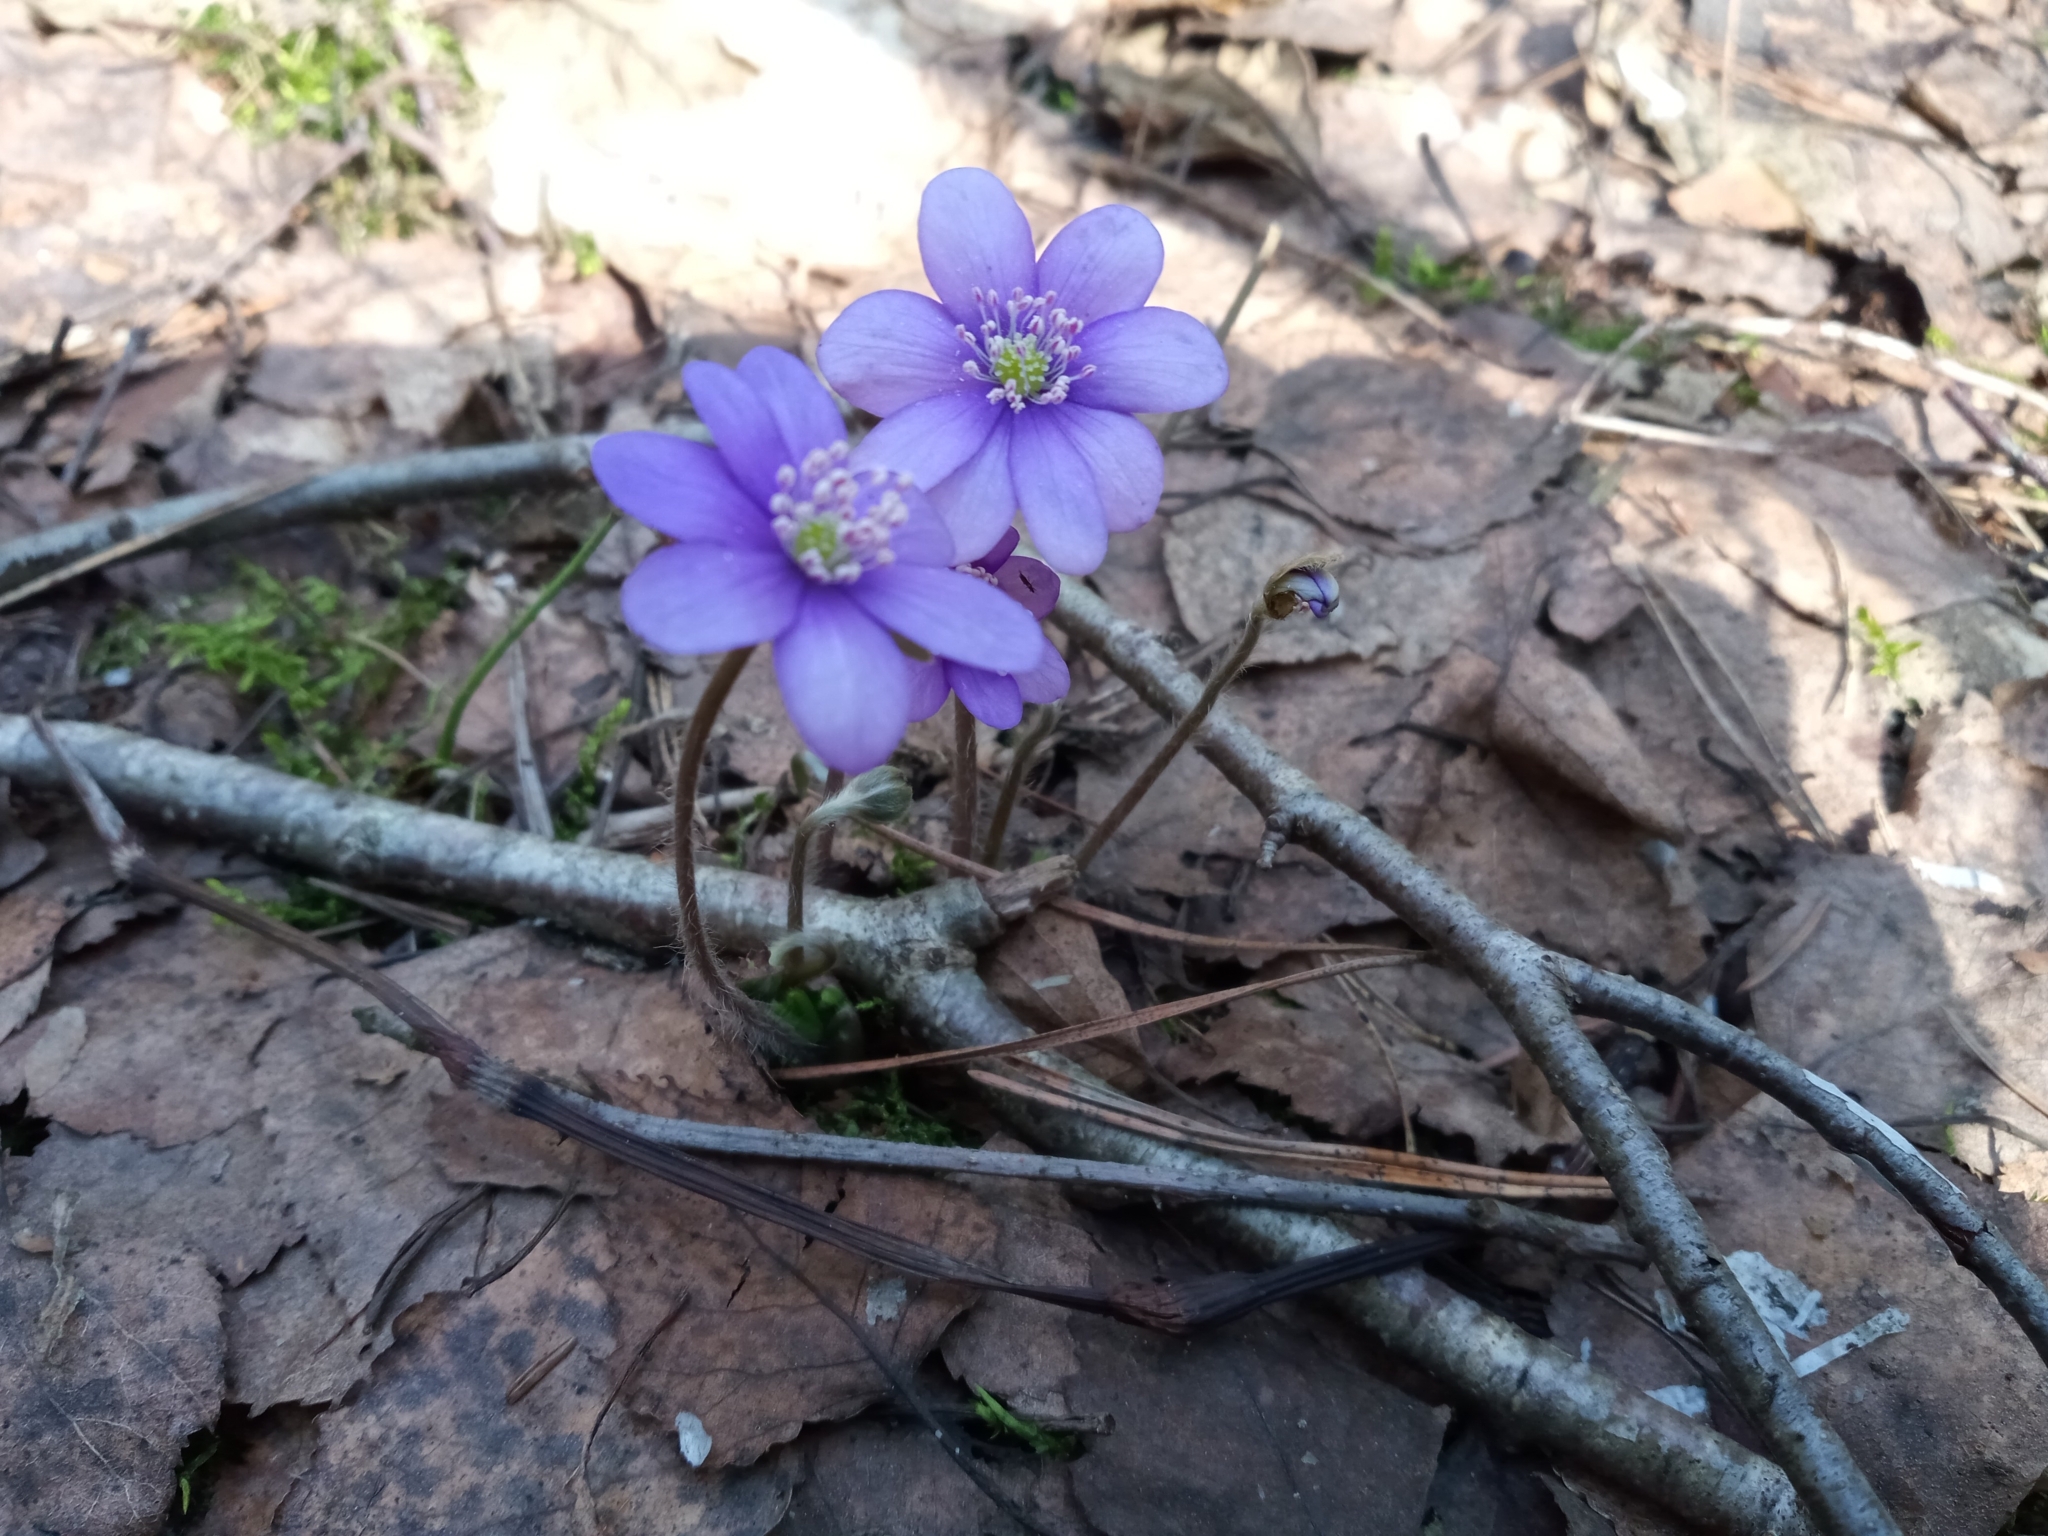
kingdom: Plantae
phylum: Tracheophyta
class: Magnoliopsida
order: Ranunculales
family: Ranunculaceae
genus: Hepatica
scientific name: Hepatica nobilis
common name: Liverleaf
